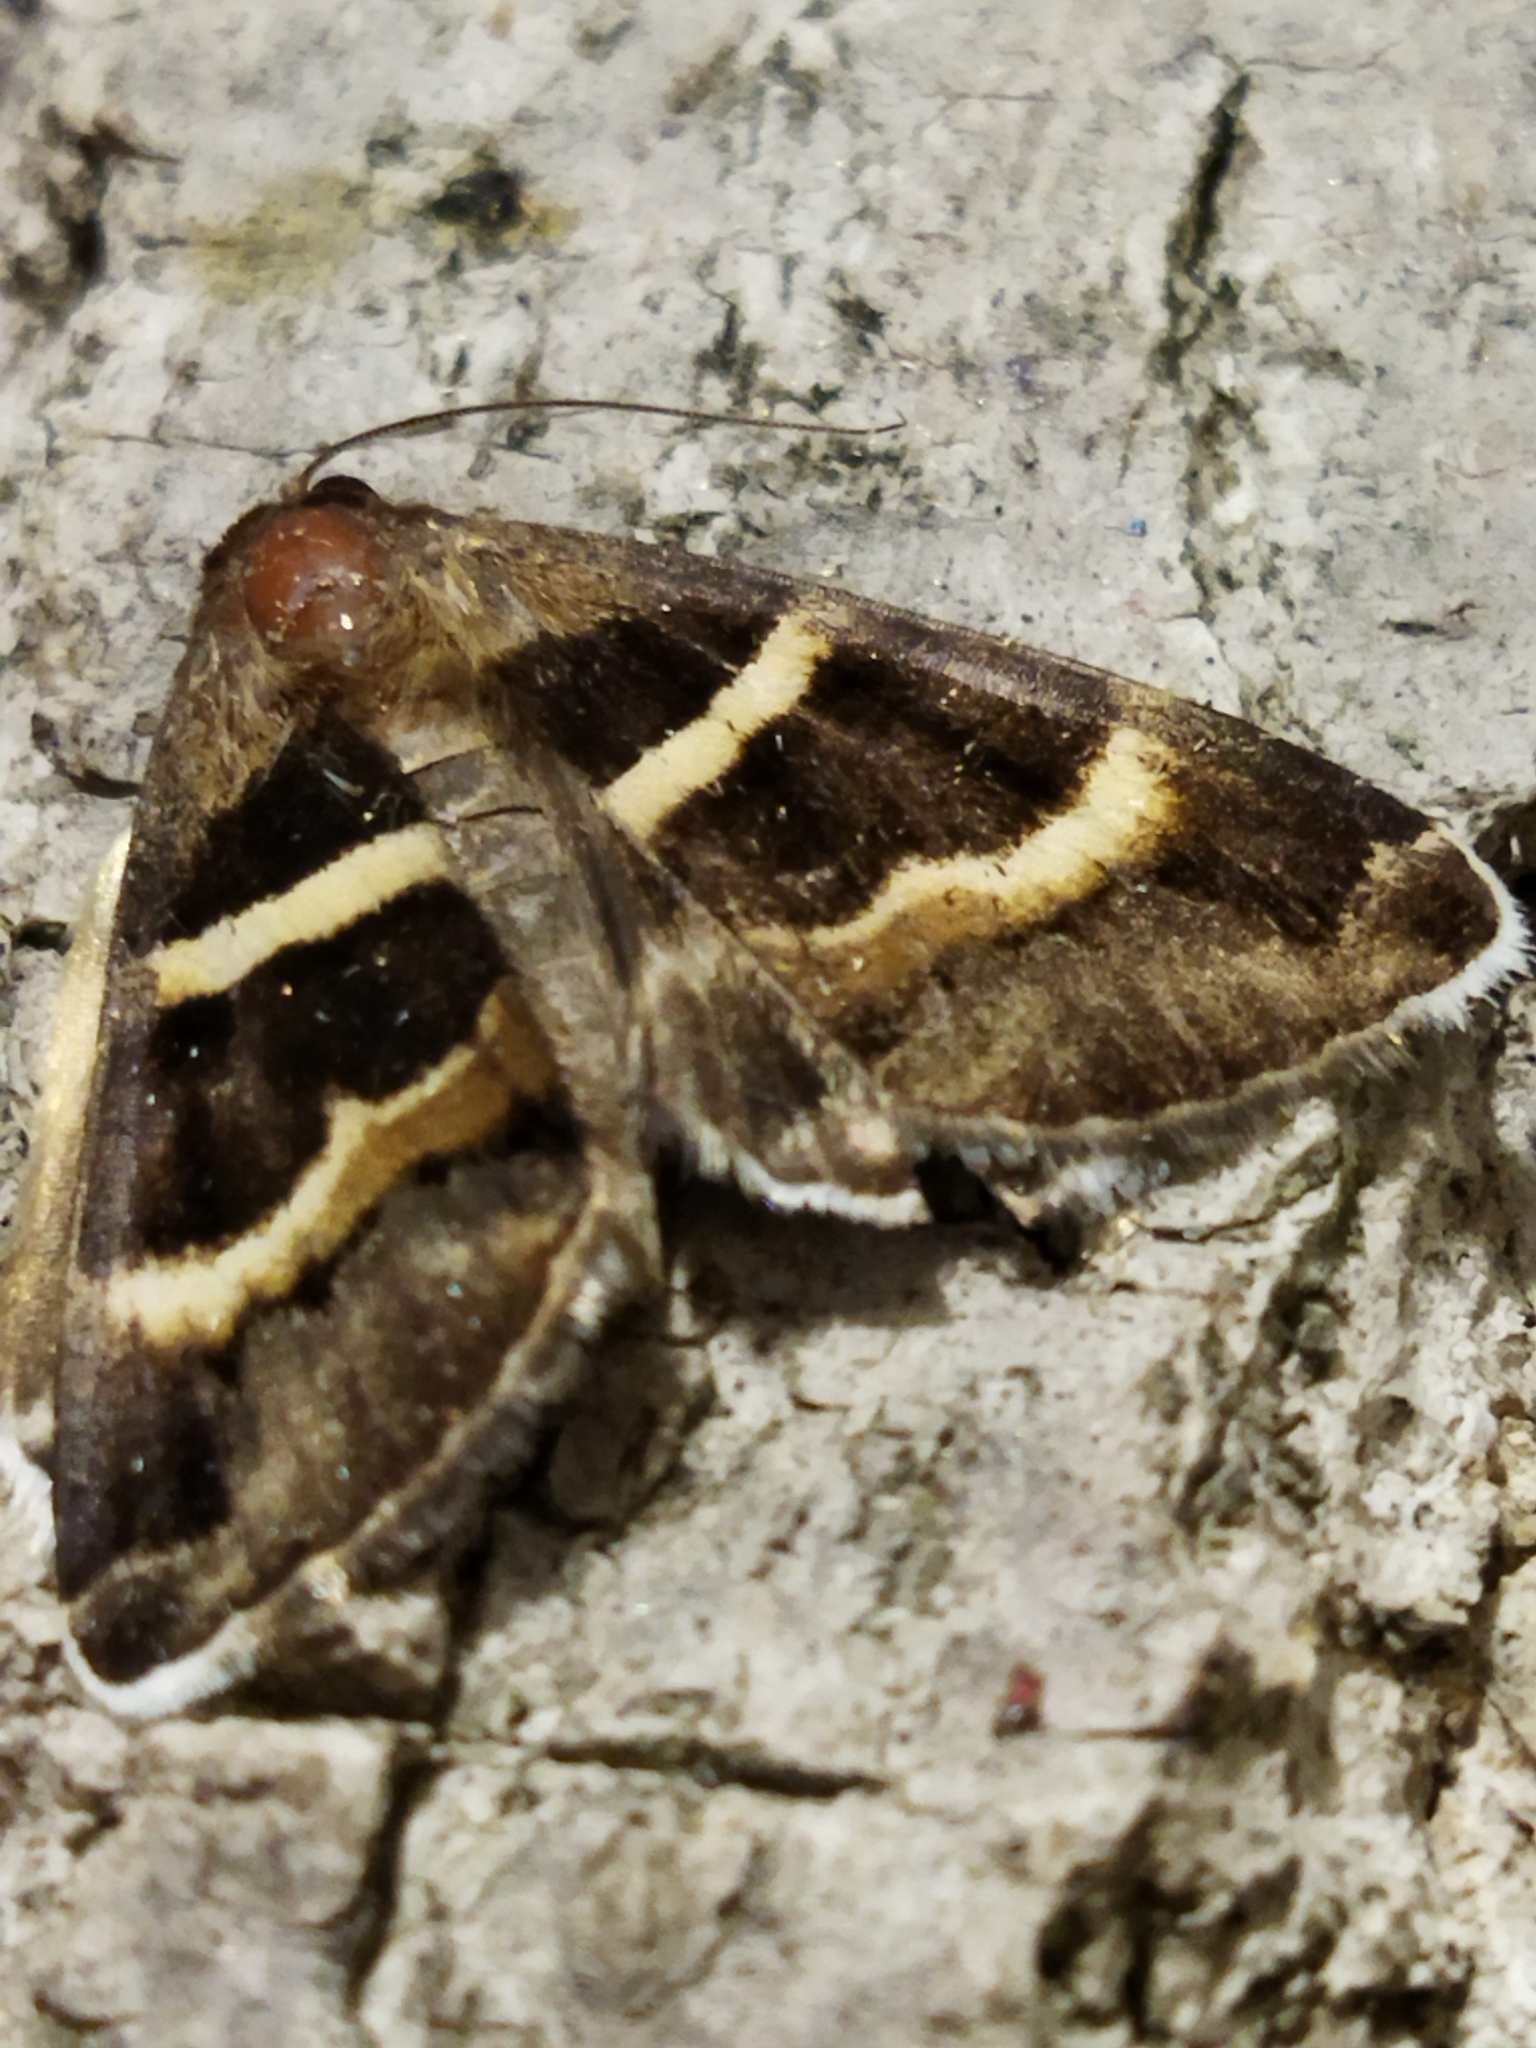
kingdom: Animalia
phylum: Arthropoda
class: Insecta
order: Lepidoptera
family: Erebidae
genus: Grammodes
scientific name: Grammodes stolida
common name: Geometrician
